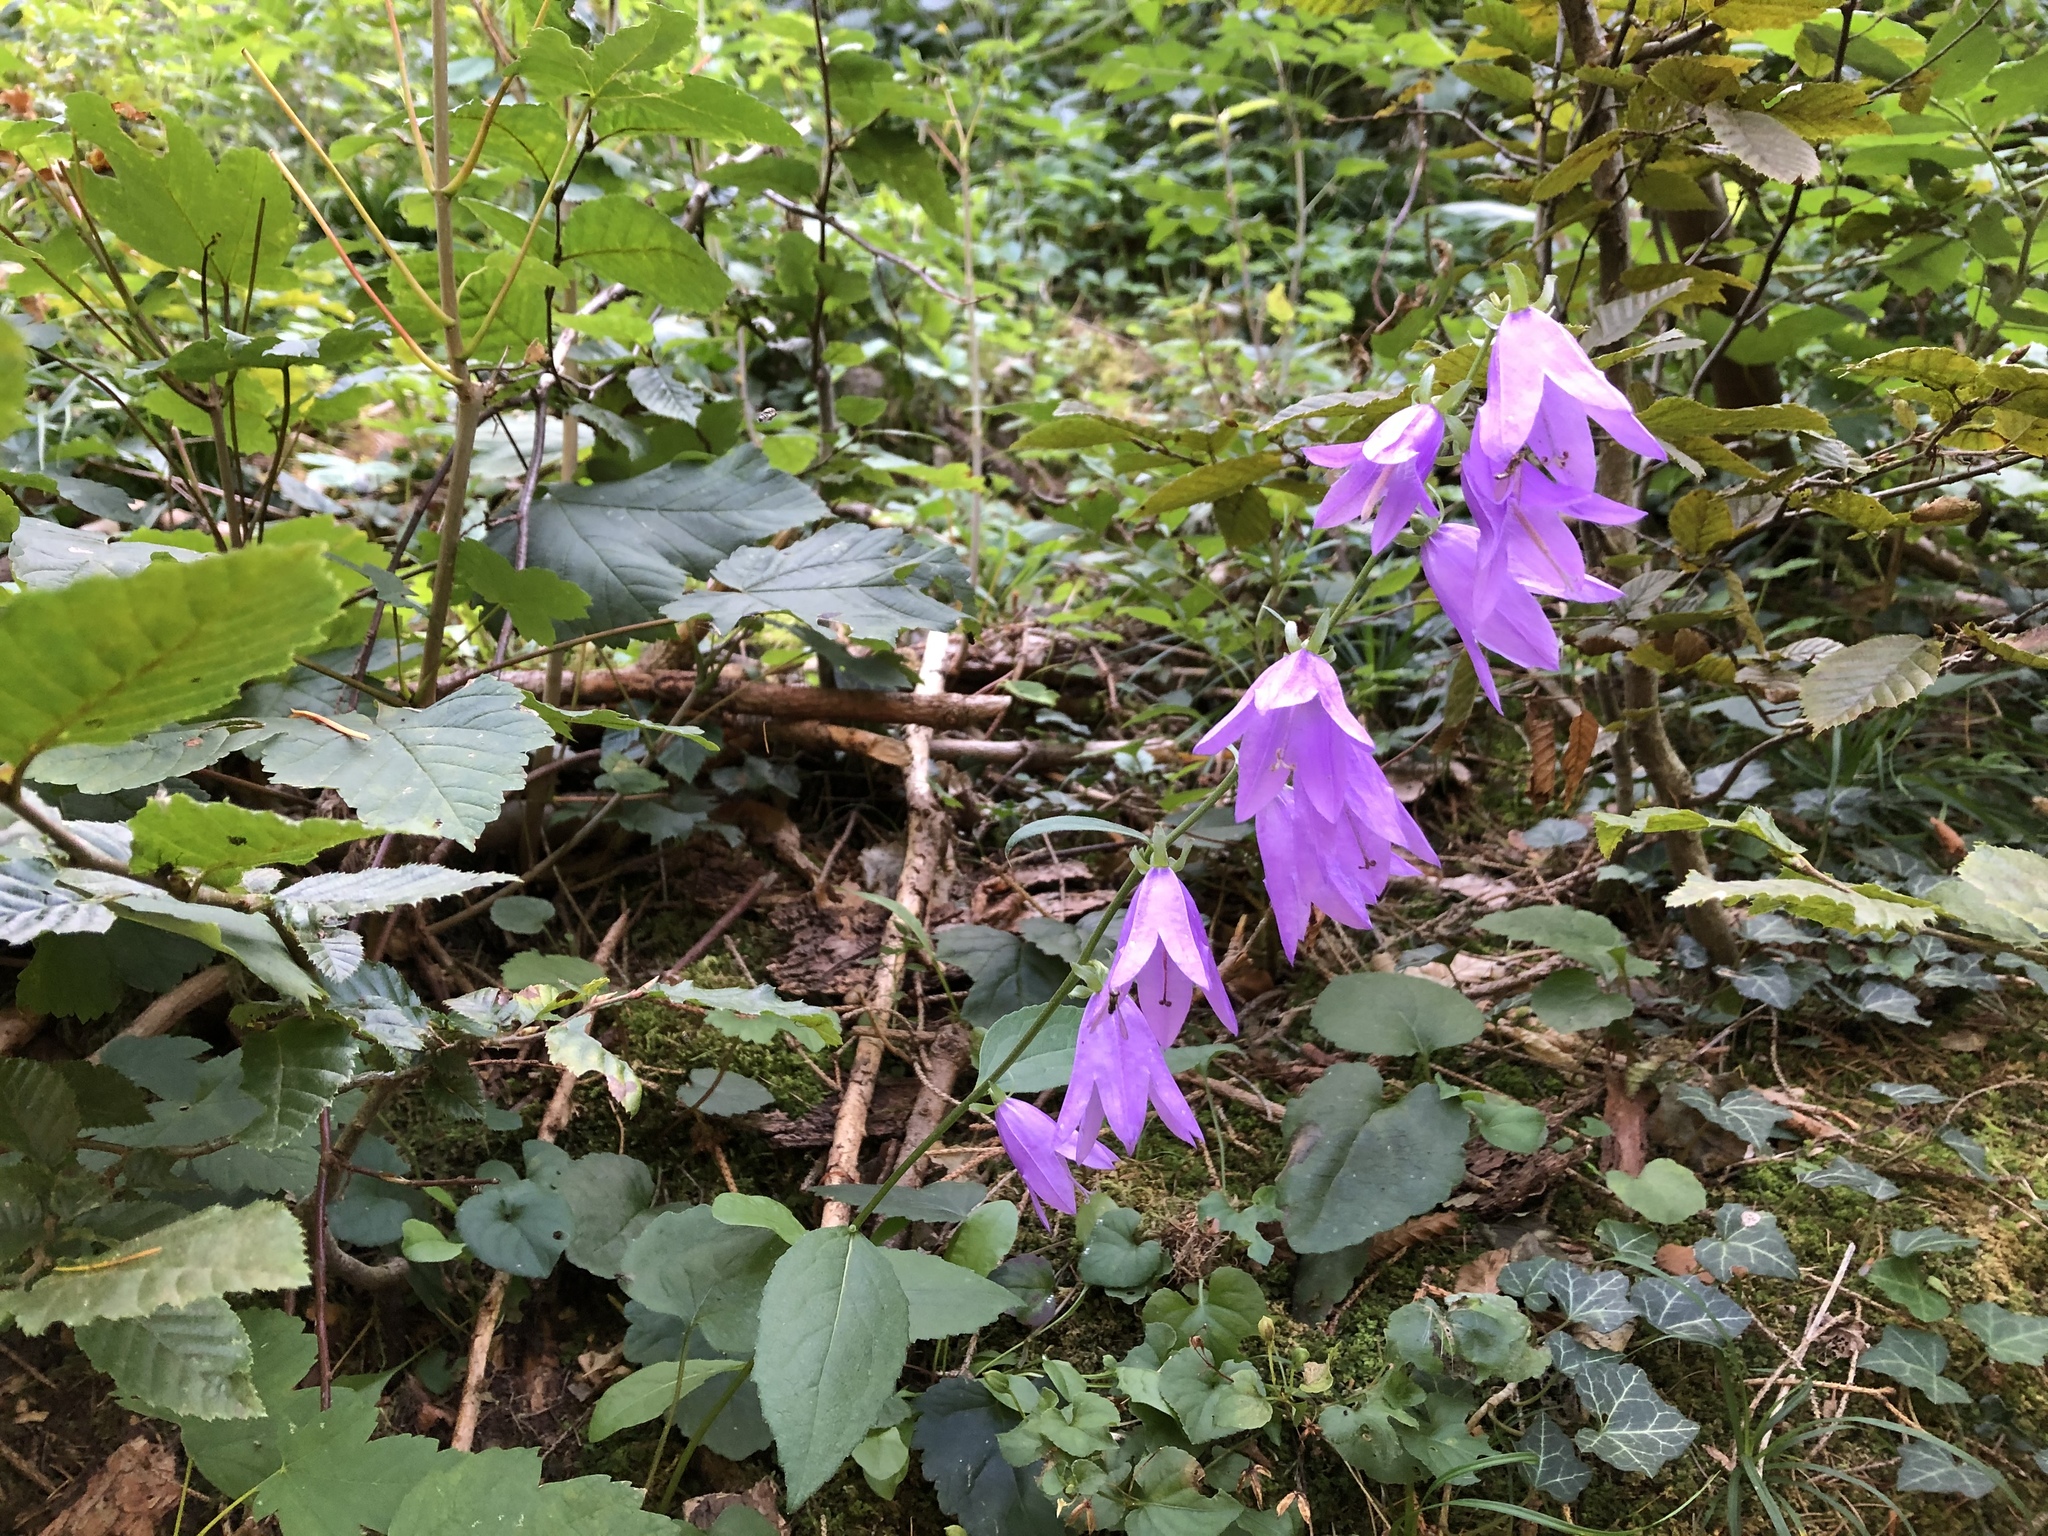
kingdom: Plantae
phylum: Tracheophyta
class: Magnoliopsida
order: Asterales
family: Campanulaceae
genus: Campanula
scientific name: Campanula rapunculoides
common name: Creeping bellflower
